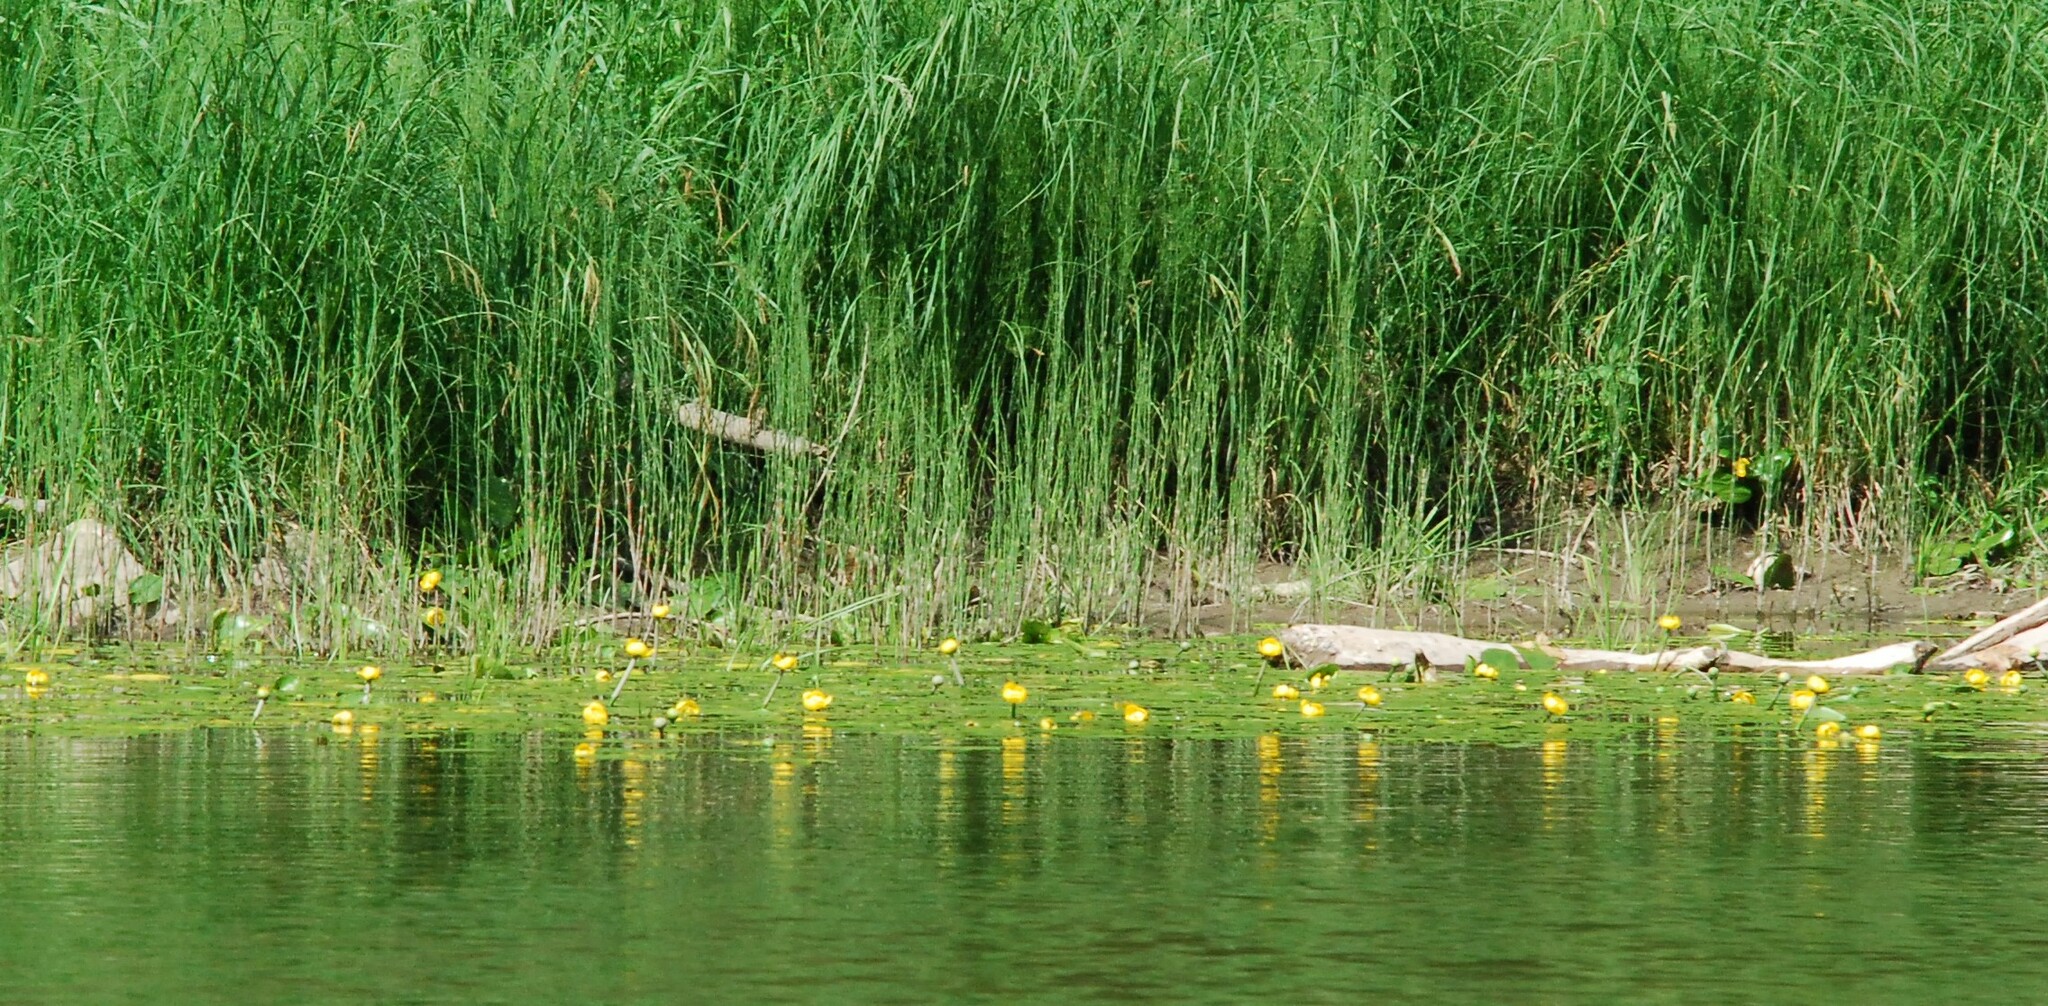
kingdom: Plantae
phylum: Tracheophyta
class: Magnoliopsida
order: Nymphaeales
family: Nymphaeaceae
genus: Nuphar
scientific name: Nuphar lutea
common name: Yellow water-lily
